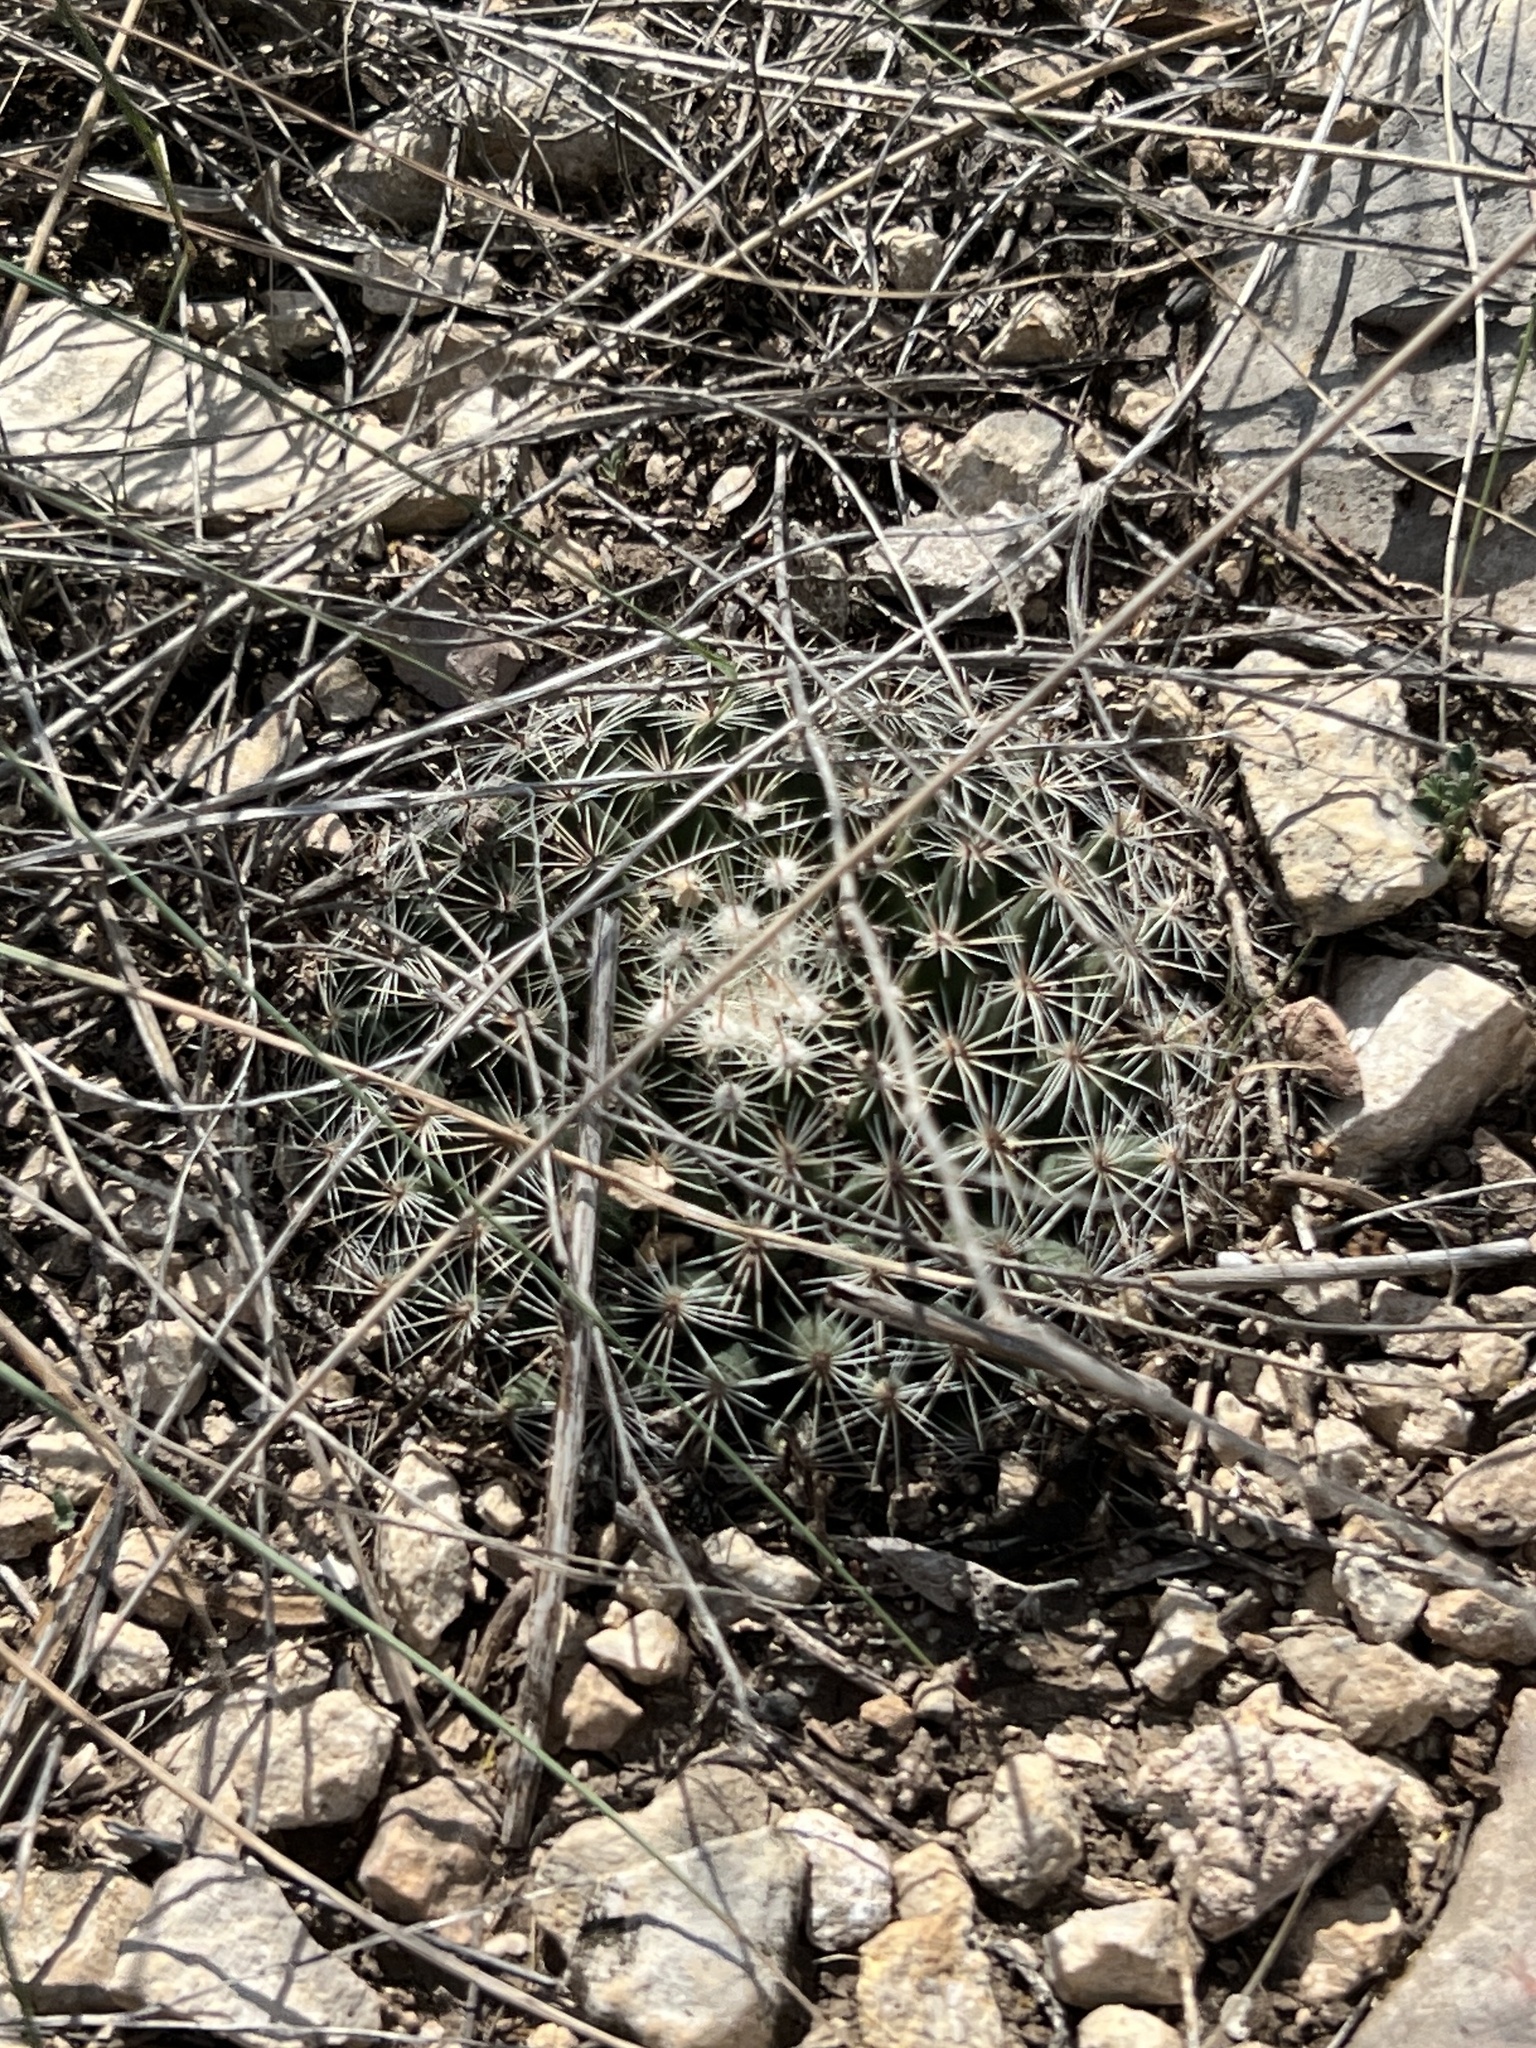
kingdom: Plantae
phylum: Tracheophyta
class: Magnoliopsida
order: Caryophyllales
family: Cactaceae
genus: Mammillaria
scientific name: Mammillaria heyderi
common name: Little nipple cactus
